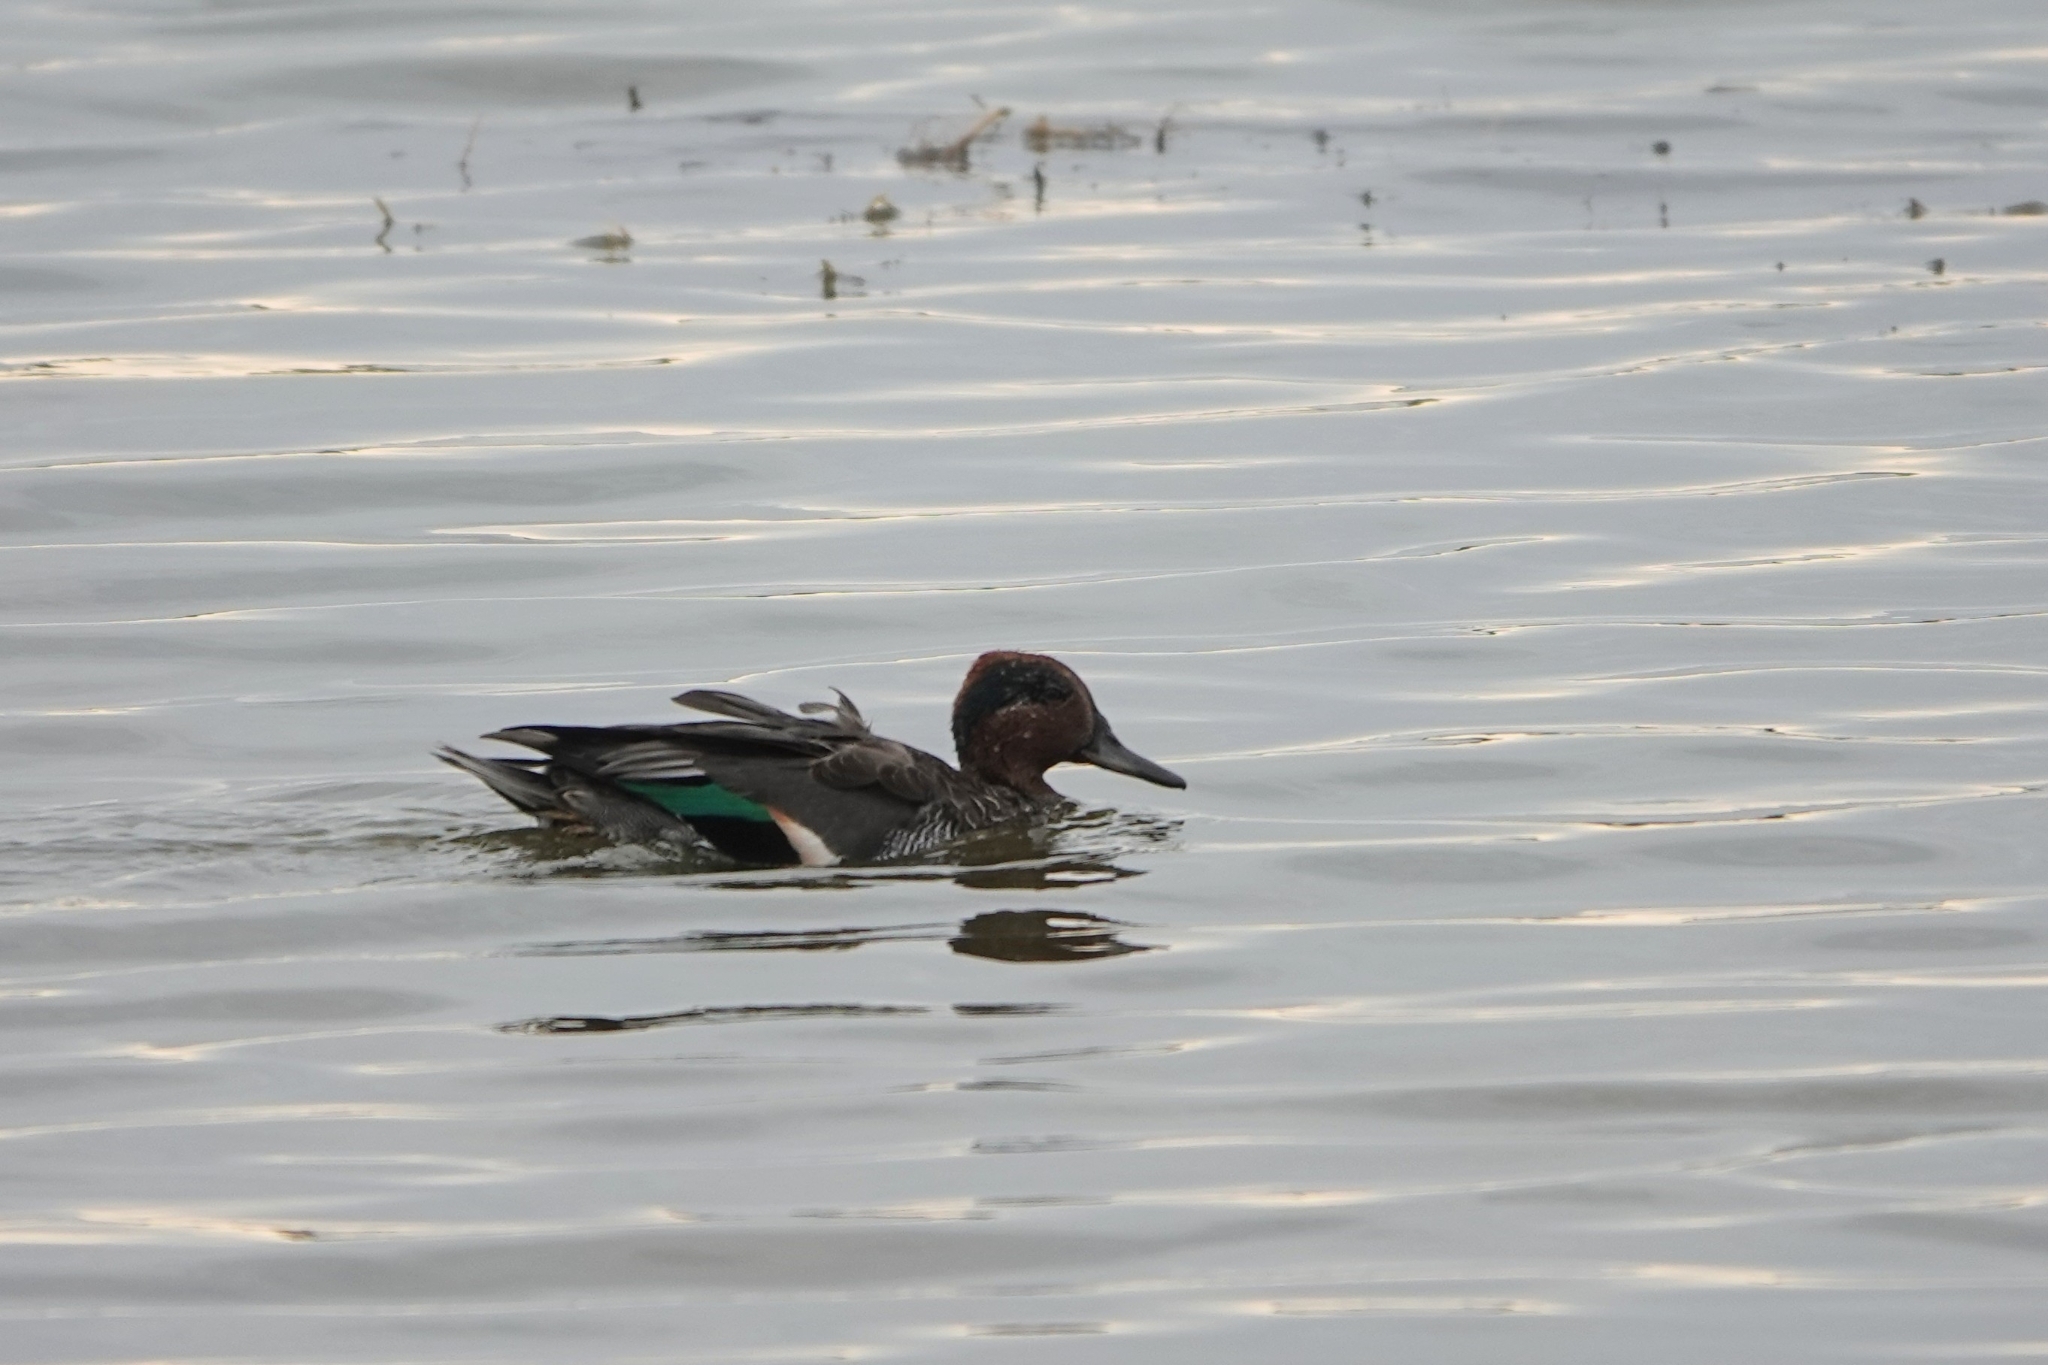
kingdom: Animalia
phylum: Chordata
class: Aves
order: Anseriformes
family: Anatidae
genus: Anas
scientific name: Anas crecca
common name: Eurasian teal
